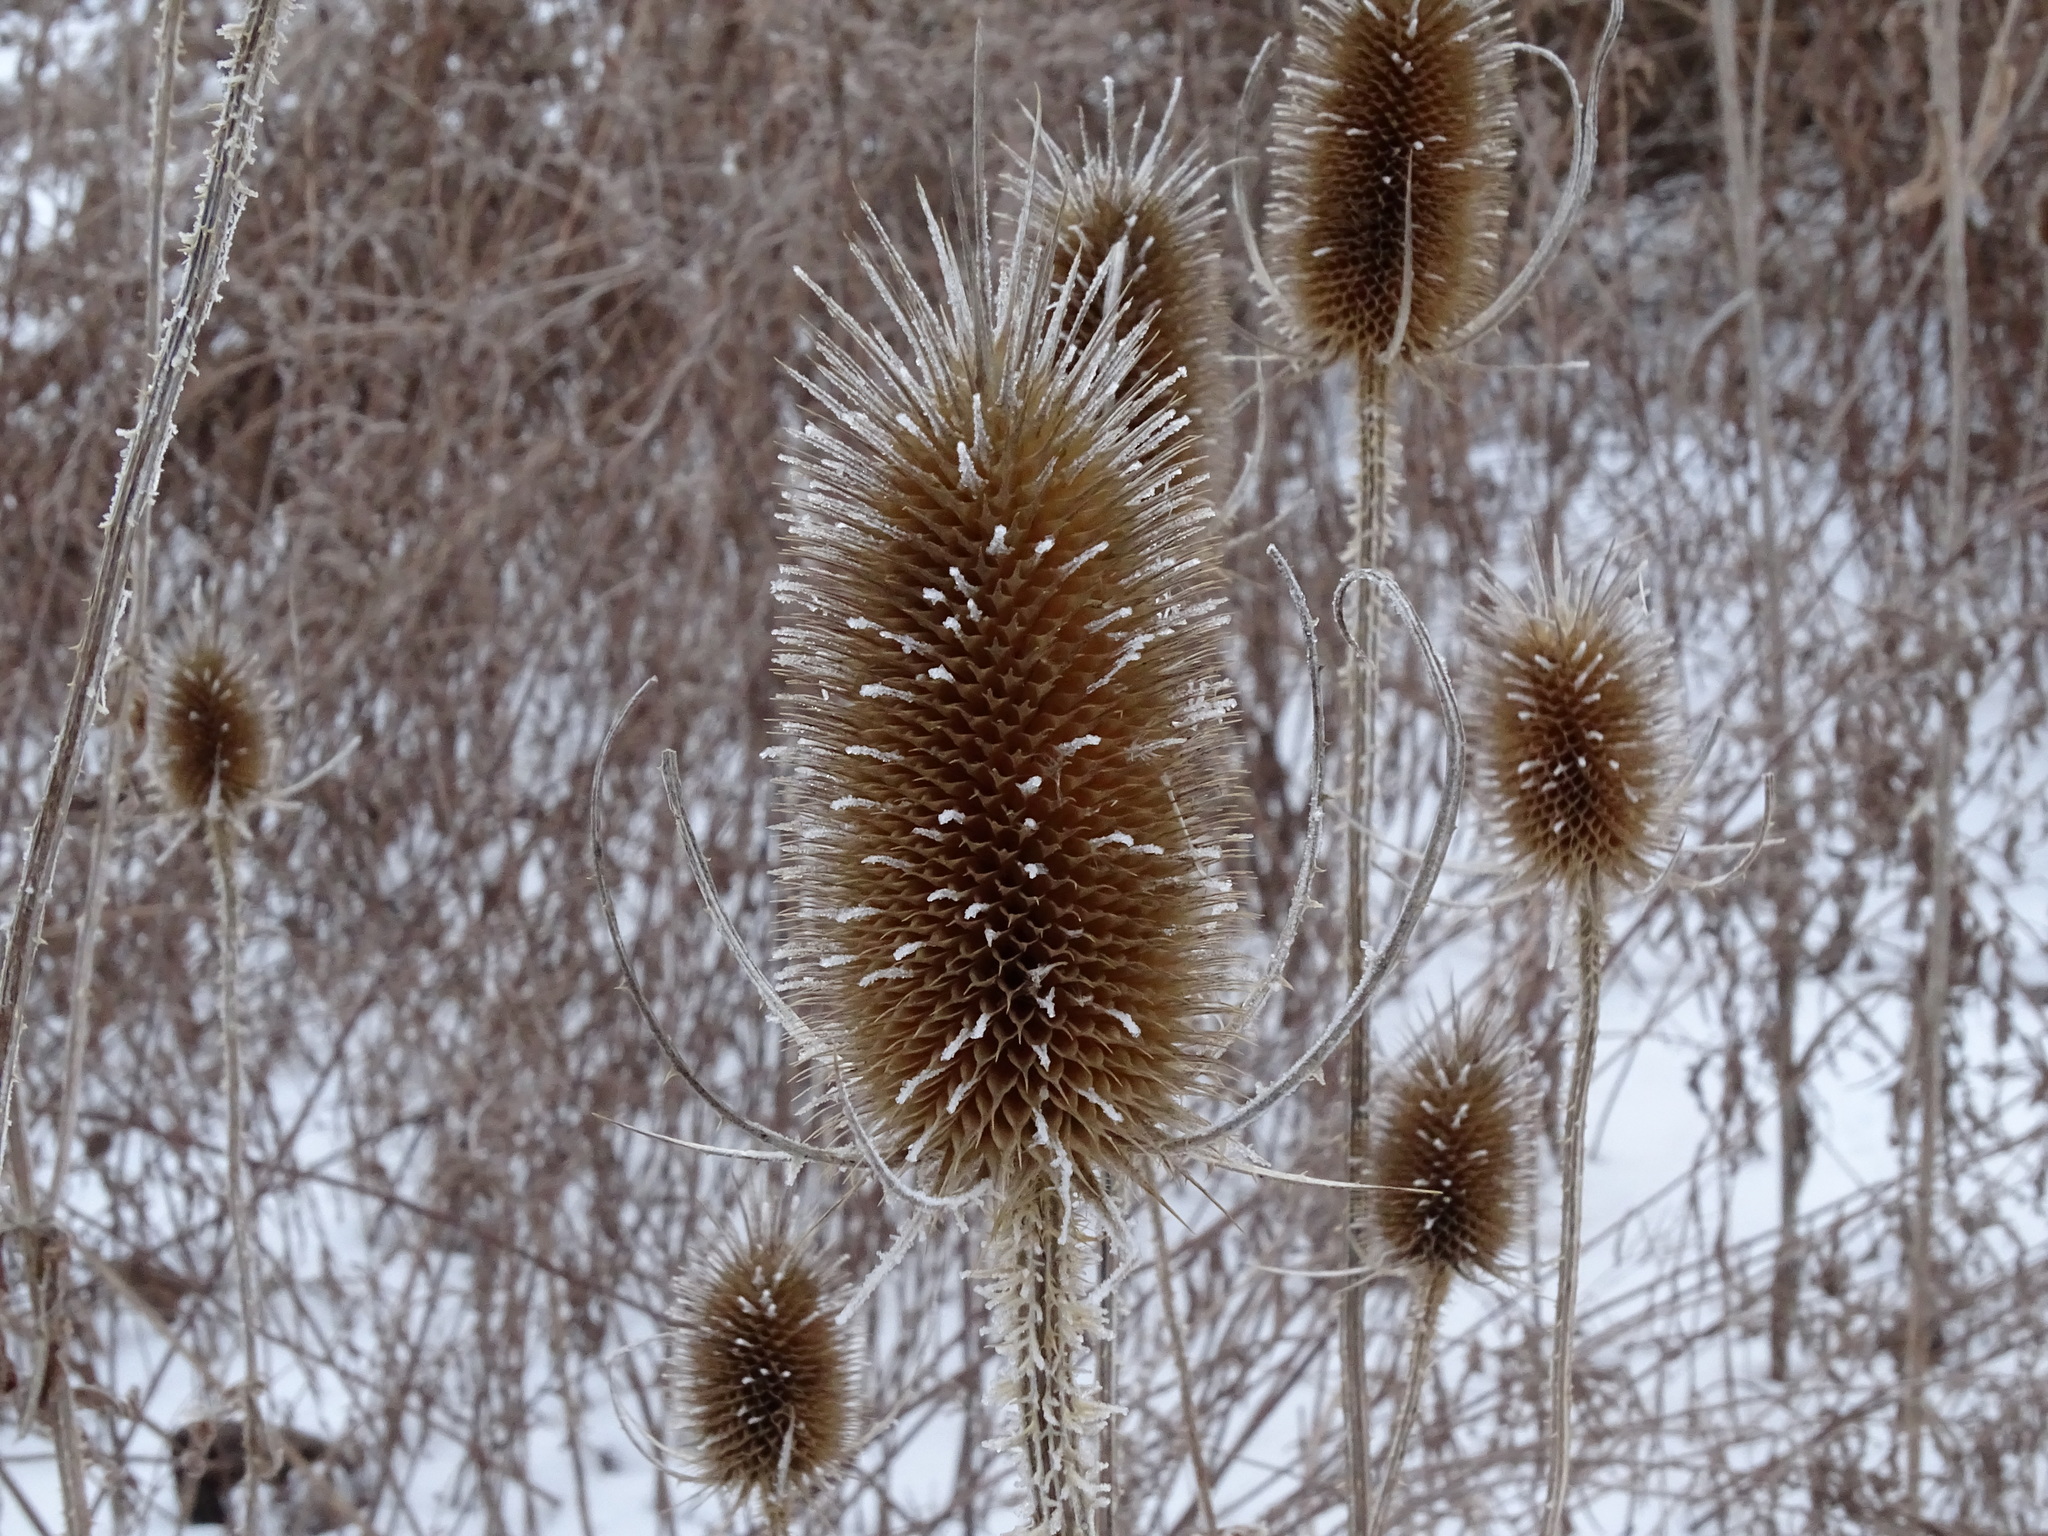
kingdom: Plantae
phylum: Tracheophyta
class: Magnoliopsida
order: Dipsacales
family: Caprifoliaceae
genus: Dipsacus
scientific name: Dipsacus fullonum
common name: Teasel
